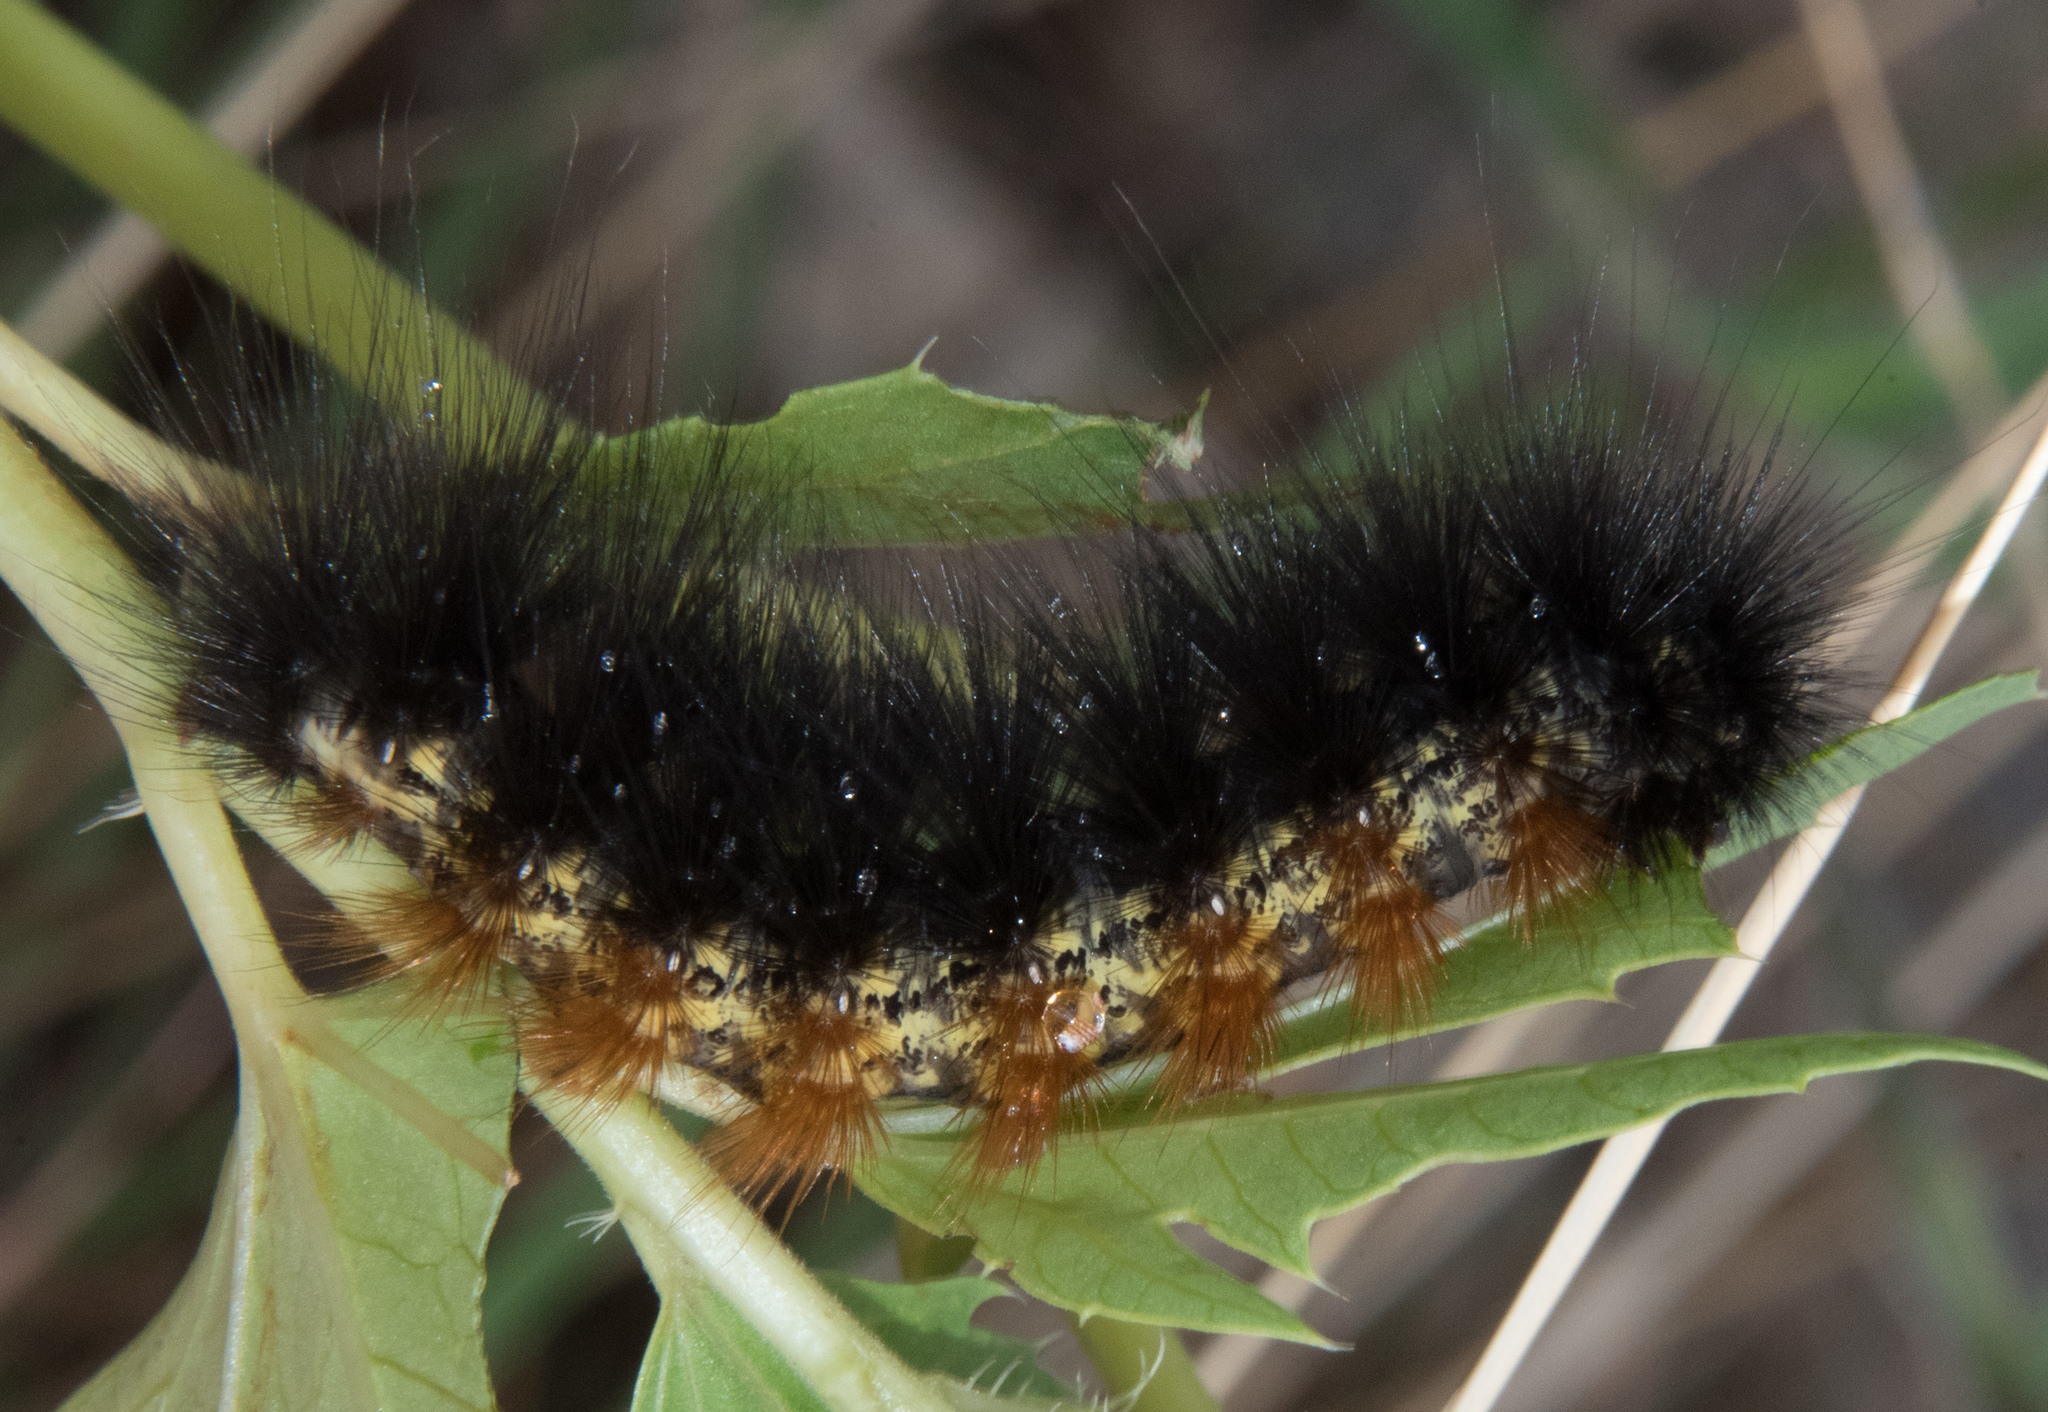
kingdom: Animalia
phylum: Arthropoda
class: Insecta
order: Lepidoptera
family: Erebidae
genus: Estigmene
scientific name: Estigmene
